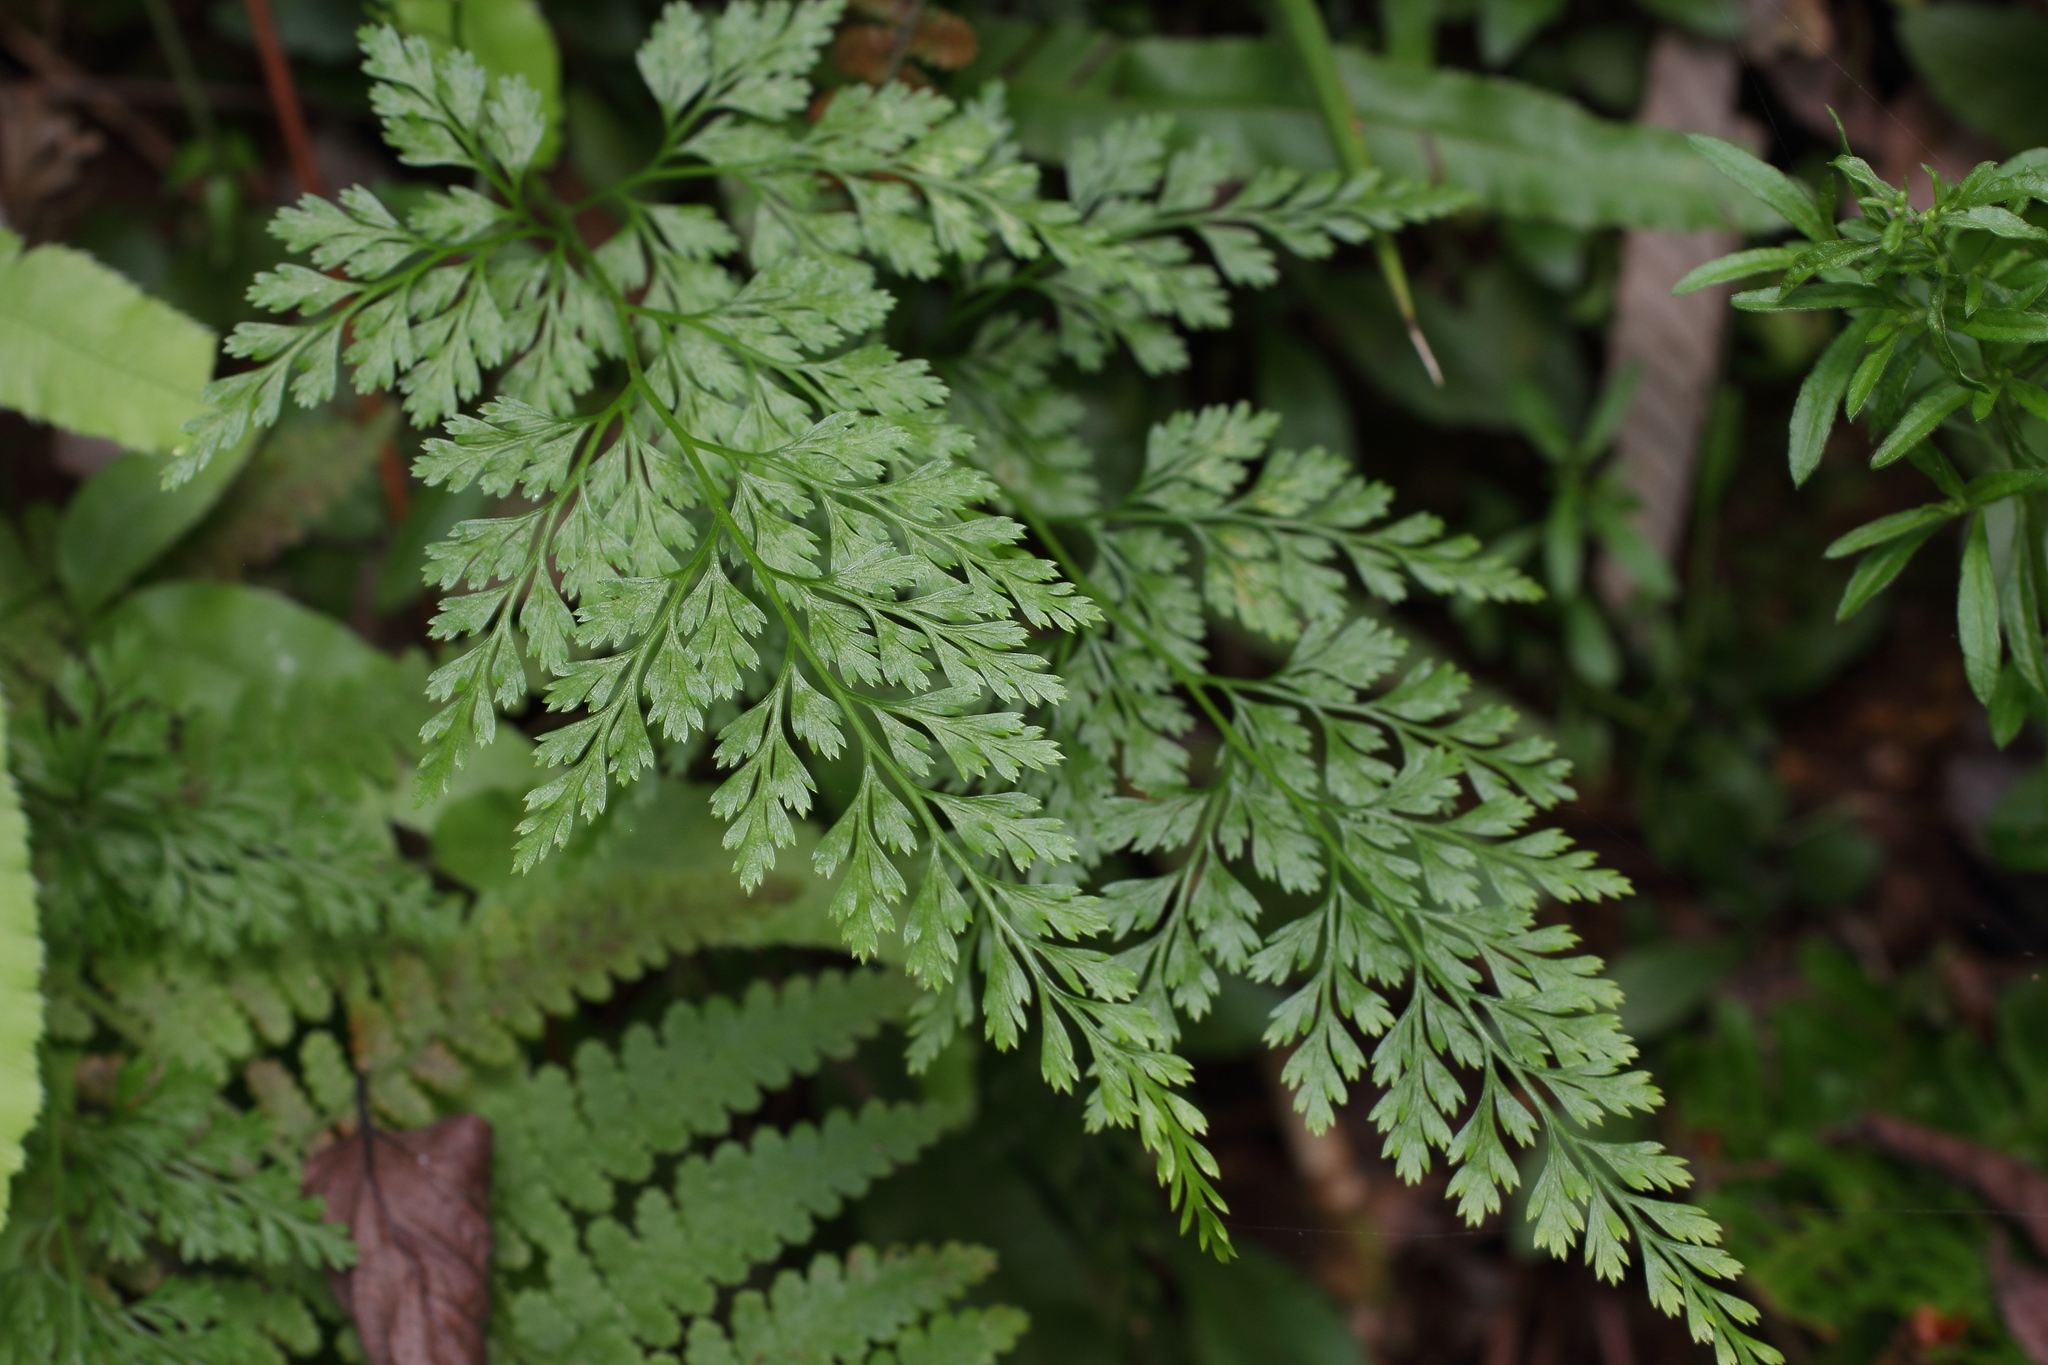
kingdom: Plantae
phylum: Tracheophyta
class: Polypodiopsida
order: Polypodiales
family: Pteridaceae
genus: Onychium
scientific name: Onychium japonicum
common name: Carrot fern
